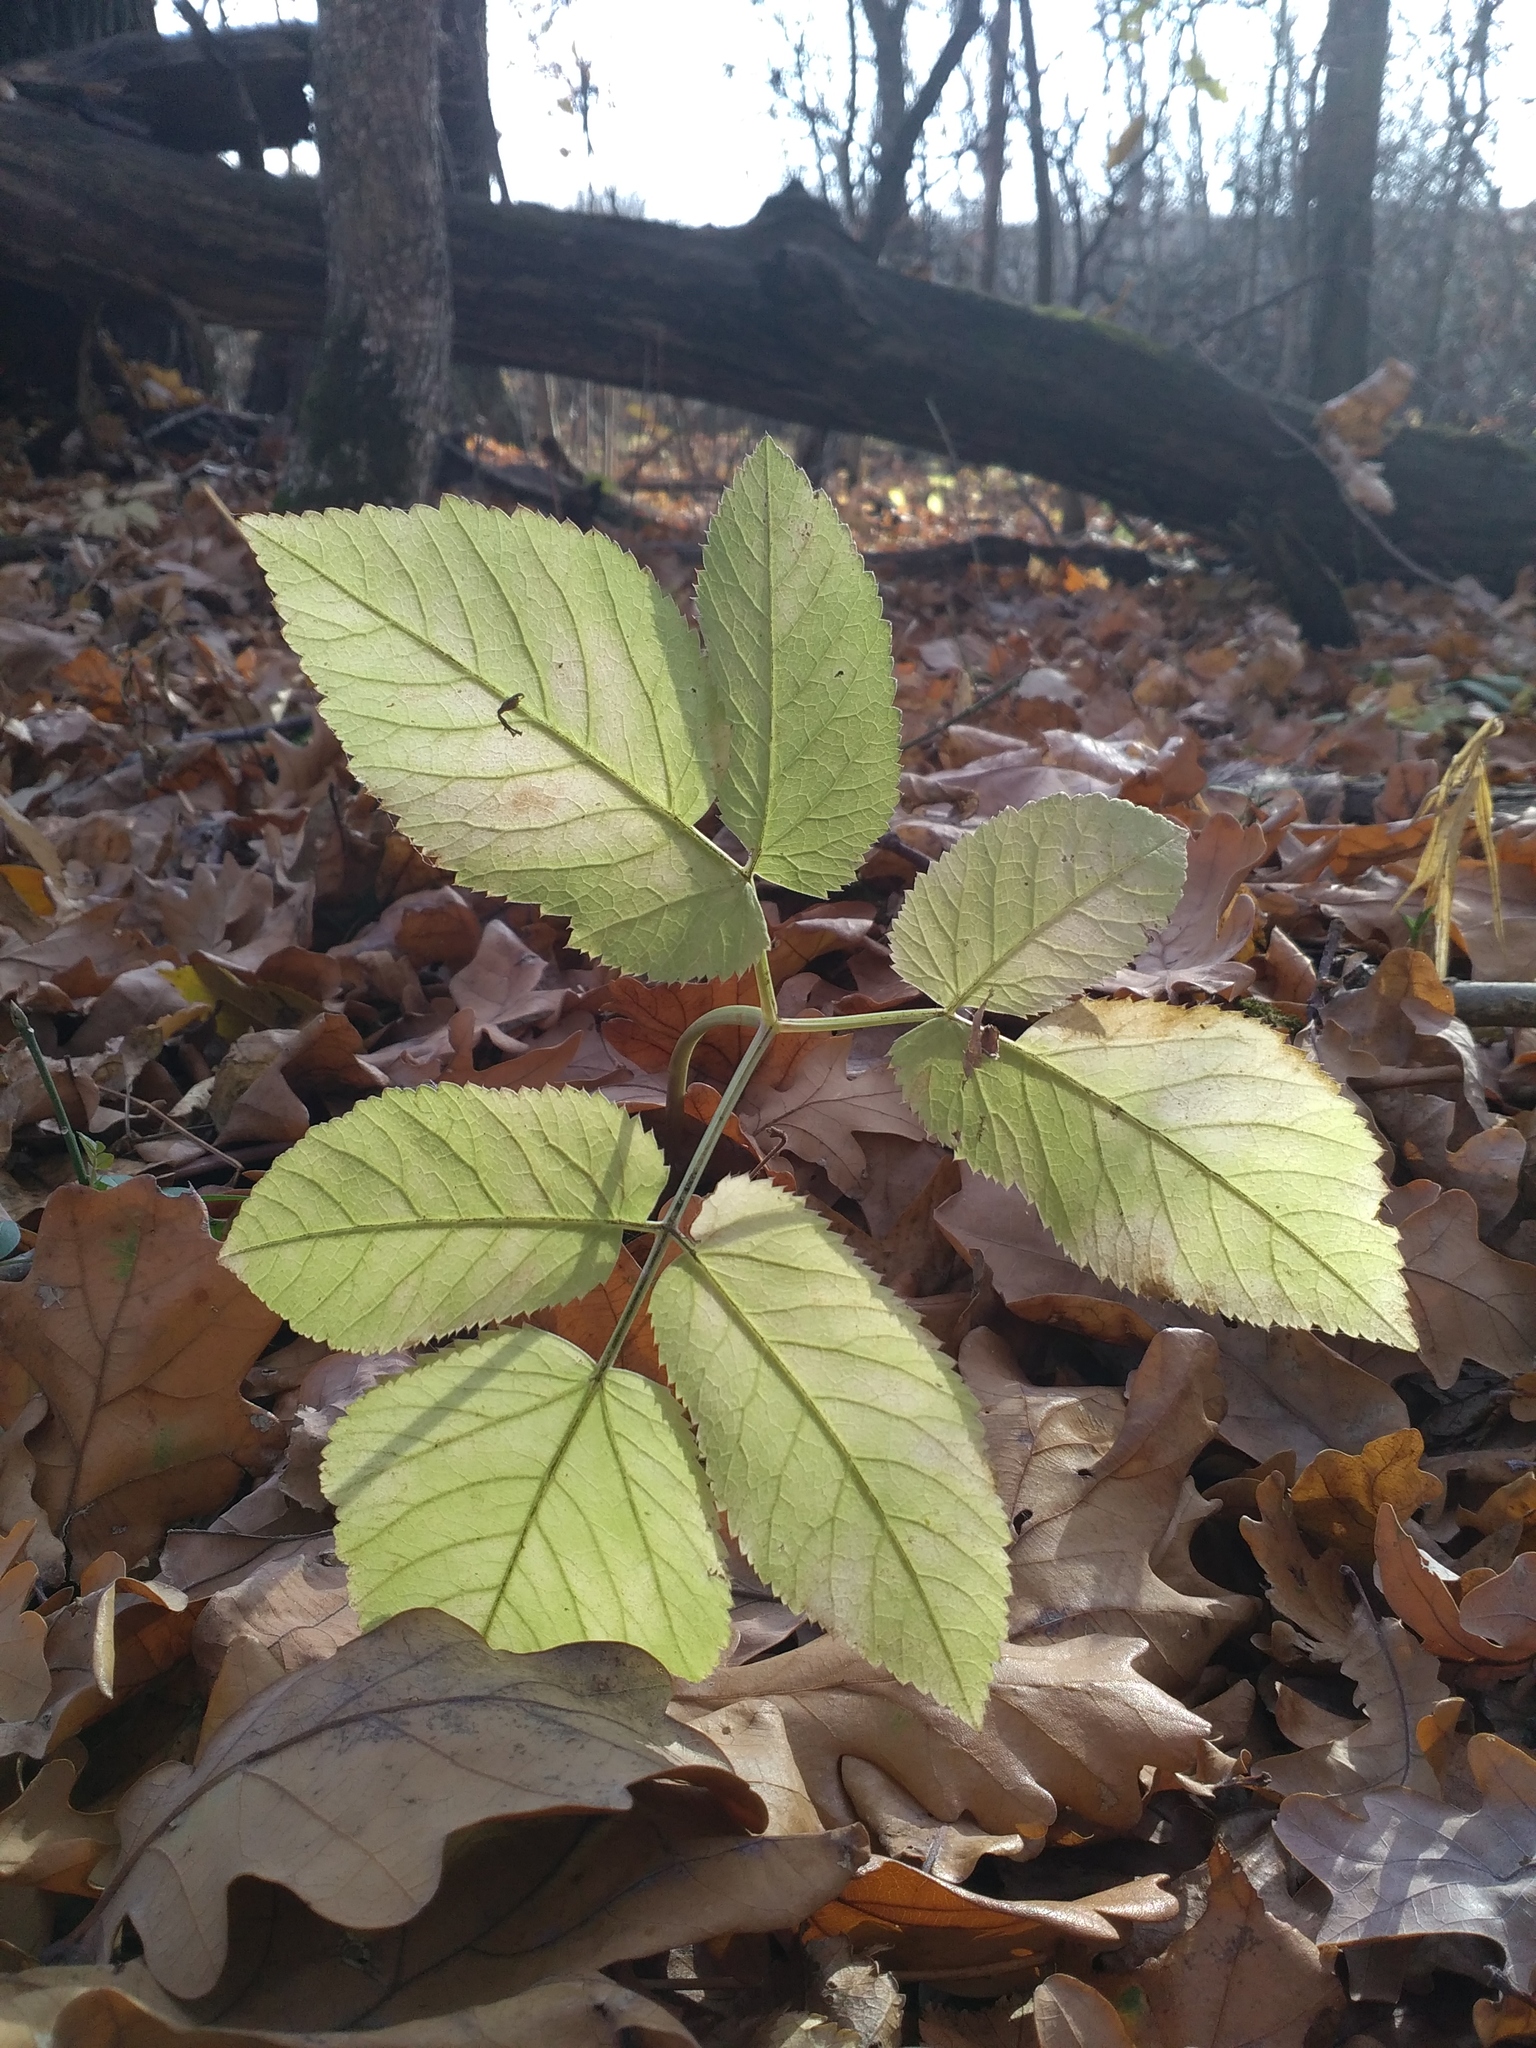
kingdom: Plantae
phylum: Tracheophyta
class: Magnoliopsida
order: Apiales
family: Apiaceae
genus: Aegopodium
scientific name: Aegopodium podagraria
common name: Ground-elder
